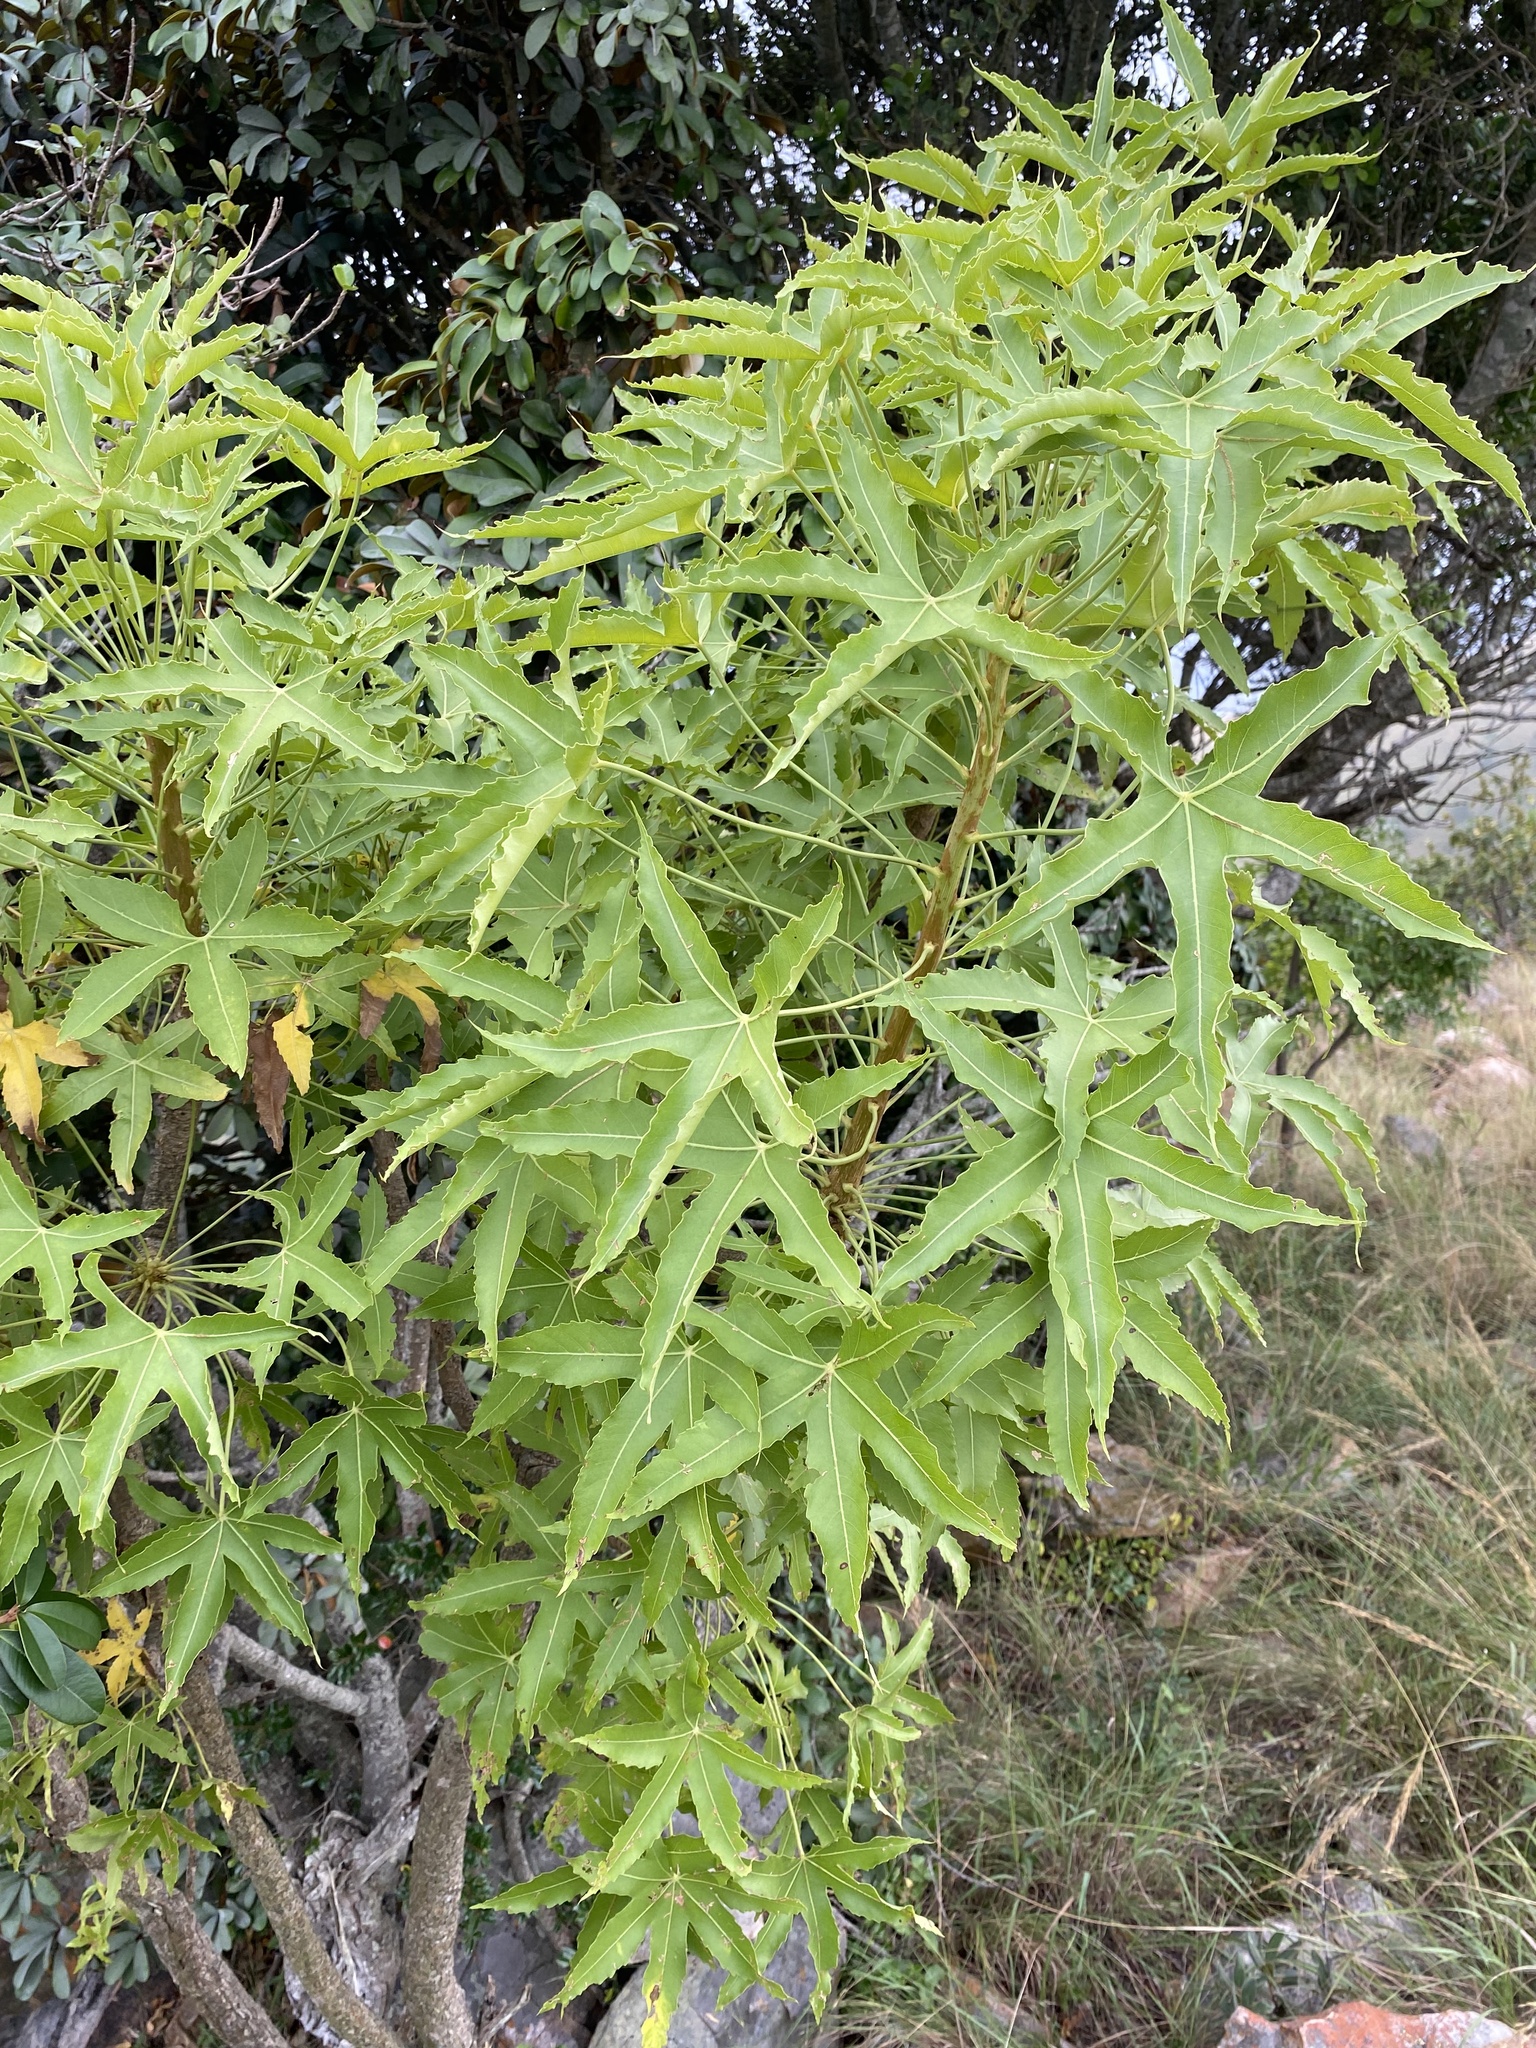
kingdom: Plantae
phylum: Tracheophyta
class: Magnoliopsida
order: Apiales
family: Araliaceae
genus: Cussonia
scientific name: Cussonia natalensis
